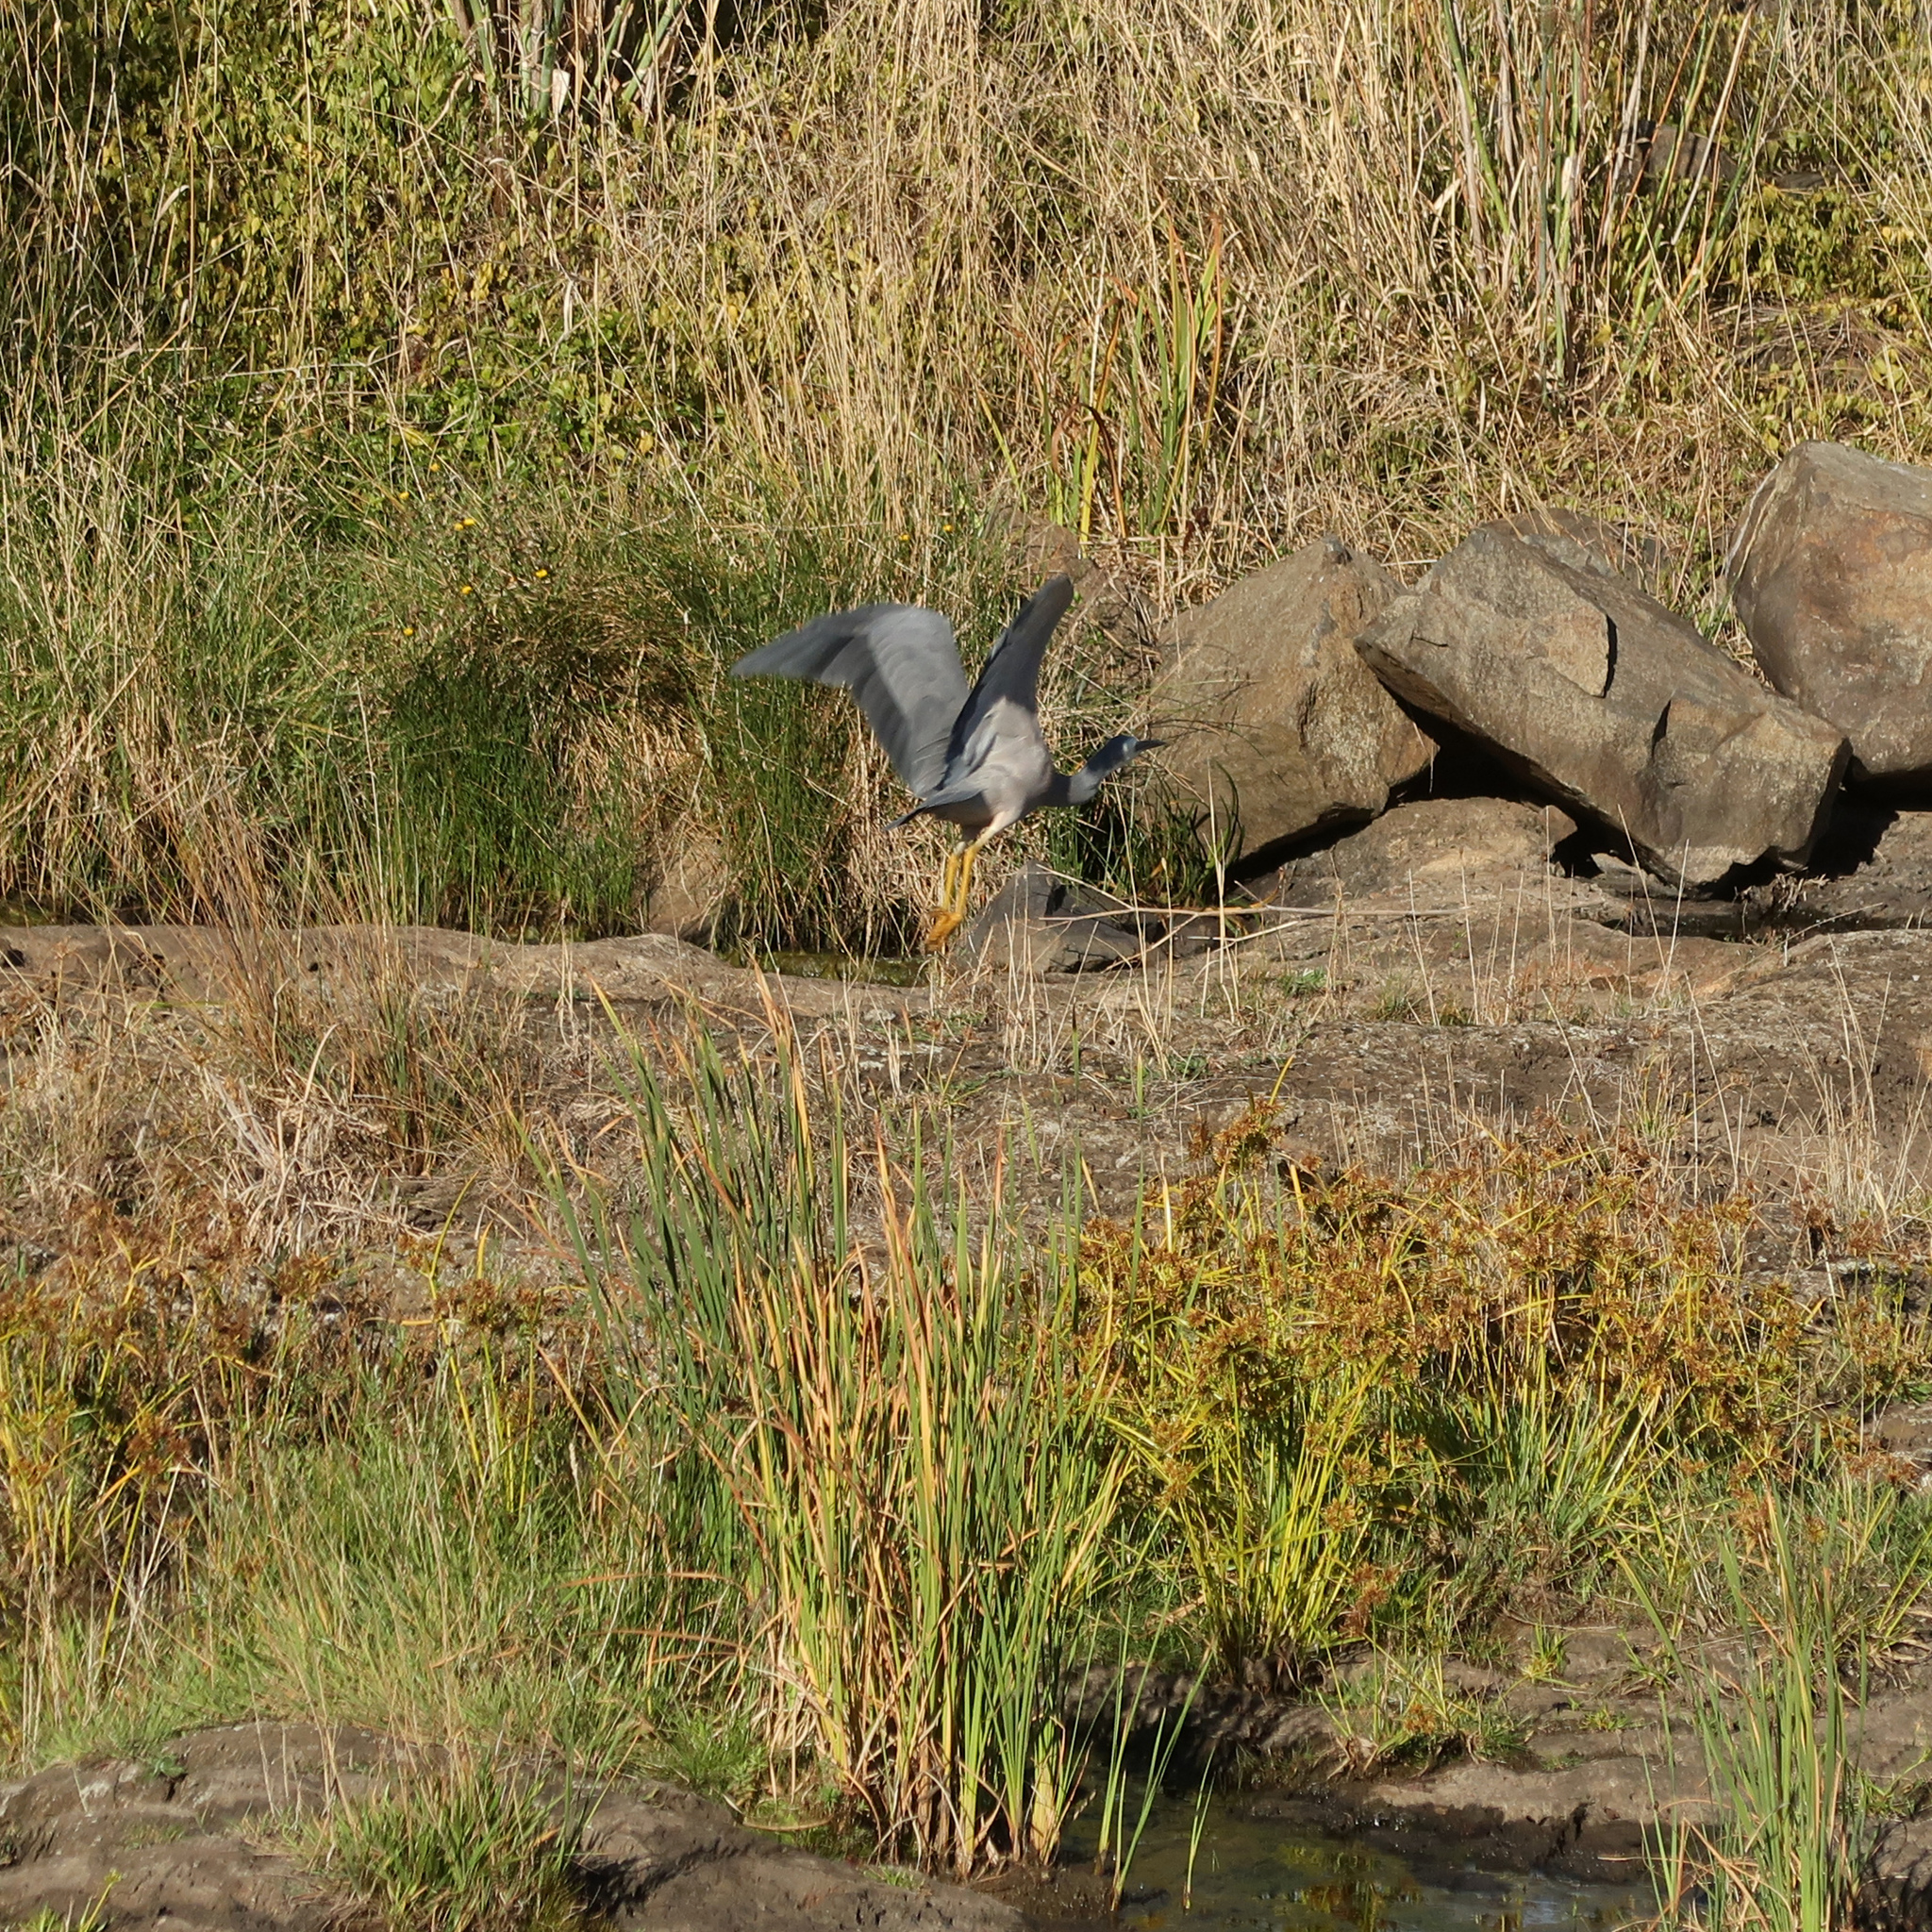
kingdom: Animalia
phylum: Chordata
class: Aves
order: Pelecaniformes
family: Ardeidae
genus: Egretta
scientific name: Egretta novaehollandiae
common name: White-faced heron
